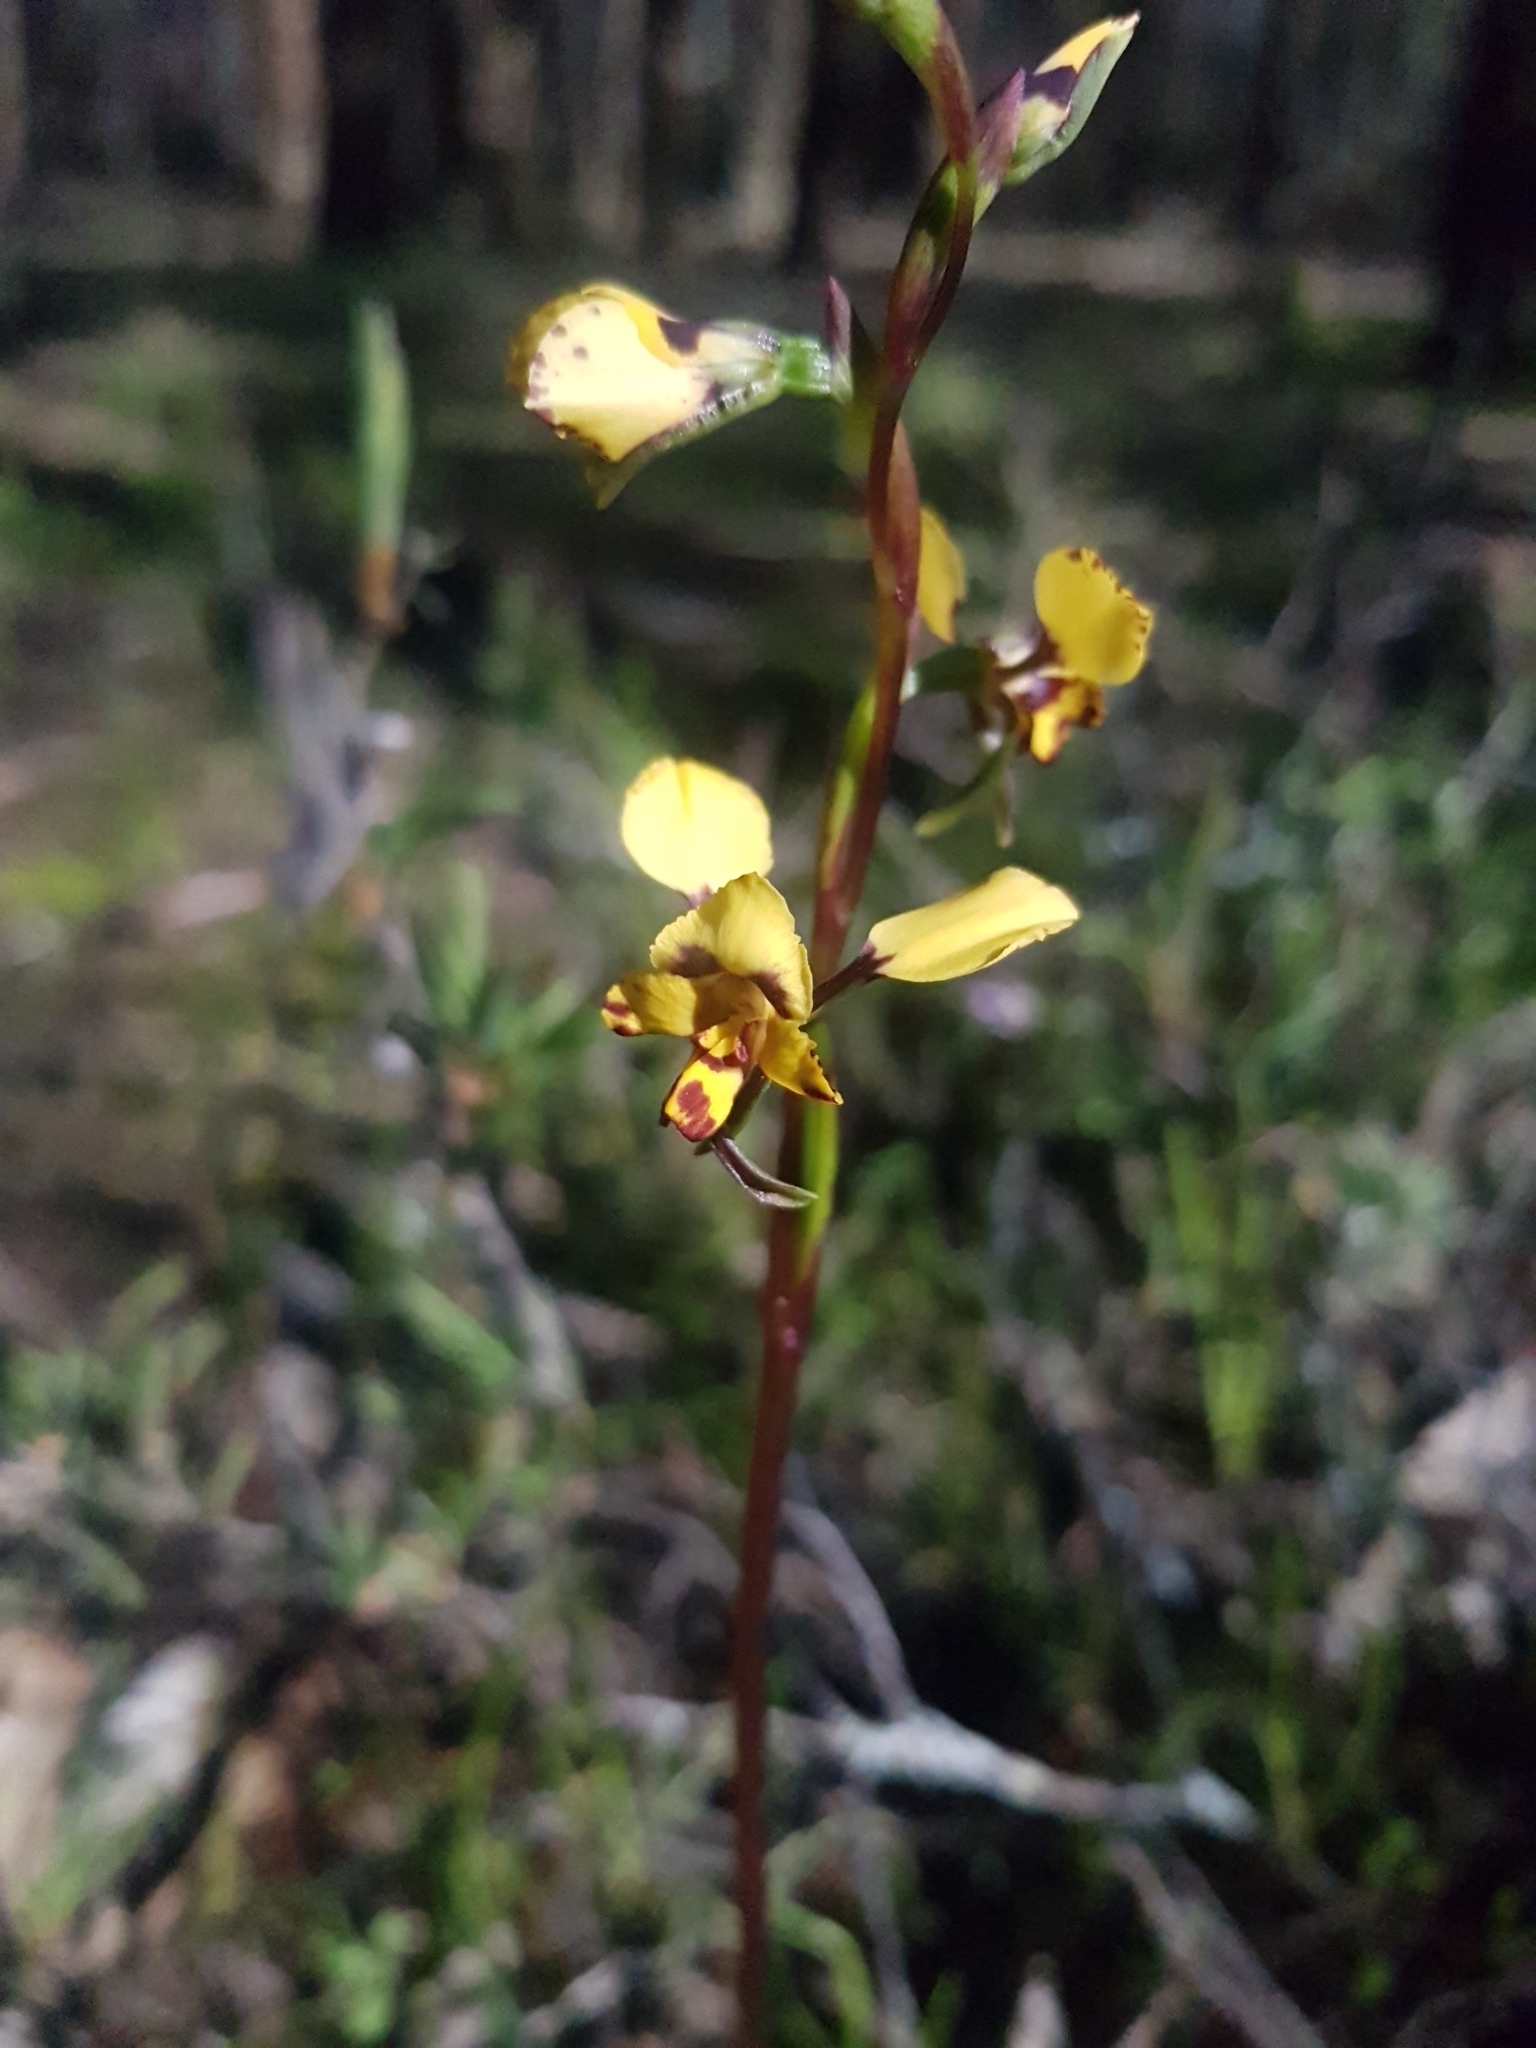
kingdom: Plantae
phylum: Tracheophyta
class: Liliopsida
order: Asparagales
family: Orchidaceae
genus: Diuris
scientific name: Diuris pardina
